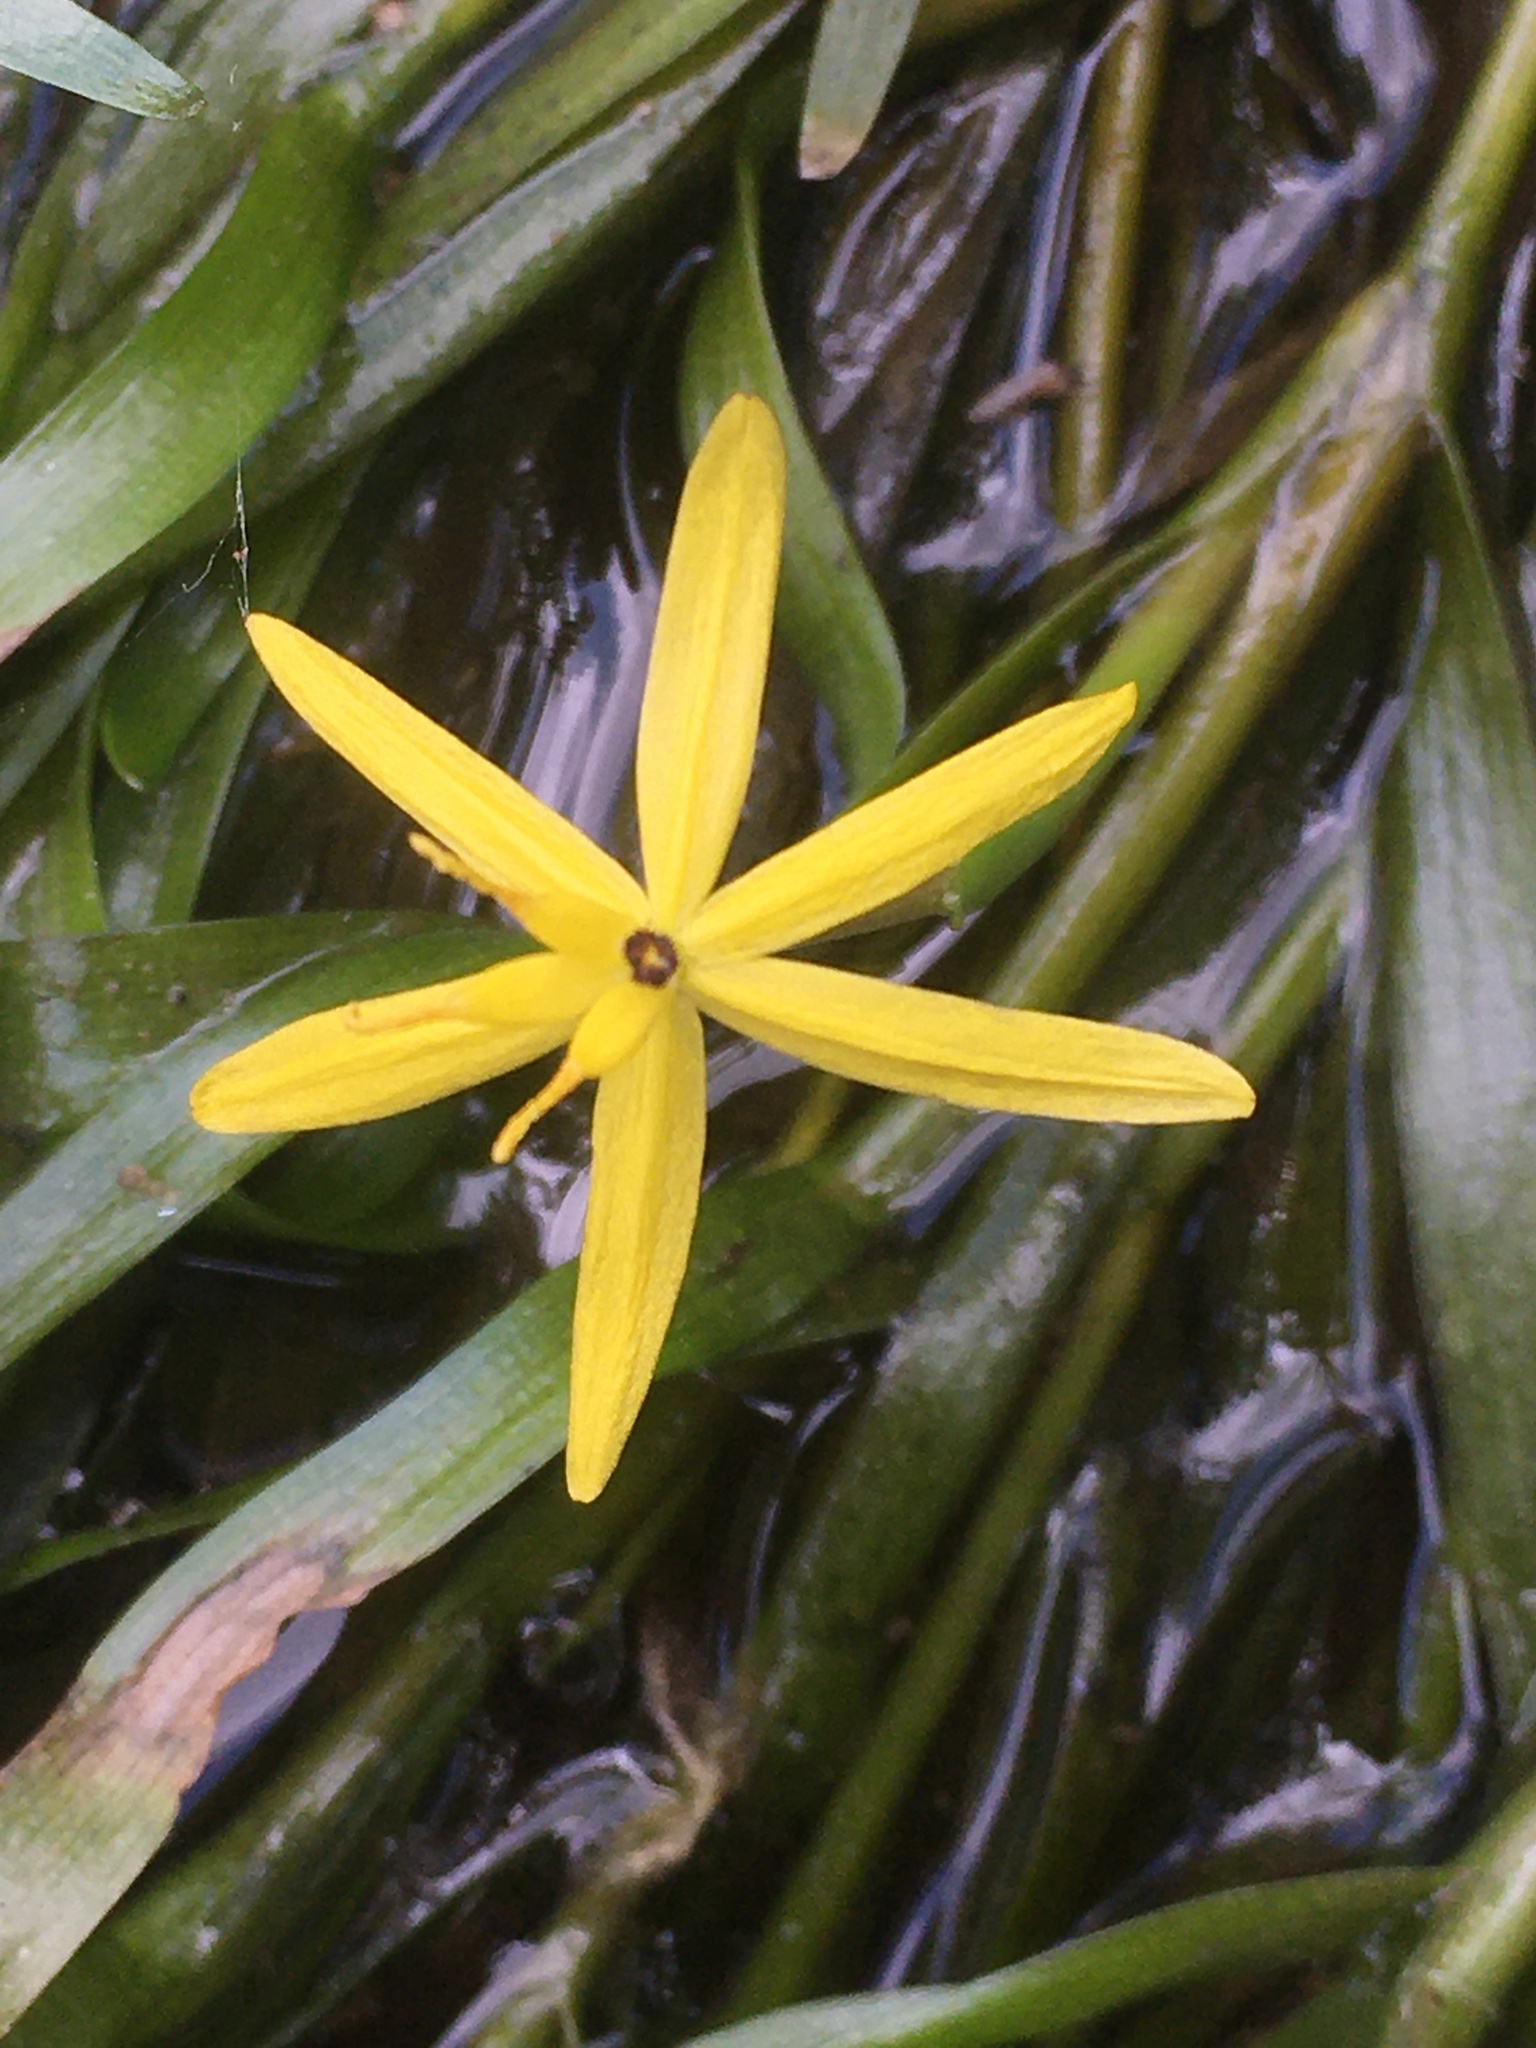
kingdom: Plantae
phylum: Tracheophyta
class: Liliopsida
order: Commelinales
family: Pontederiaceae
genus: Heteranthera
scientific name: Heteranthera dubia
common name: Grass-leaved mud plantain
